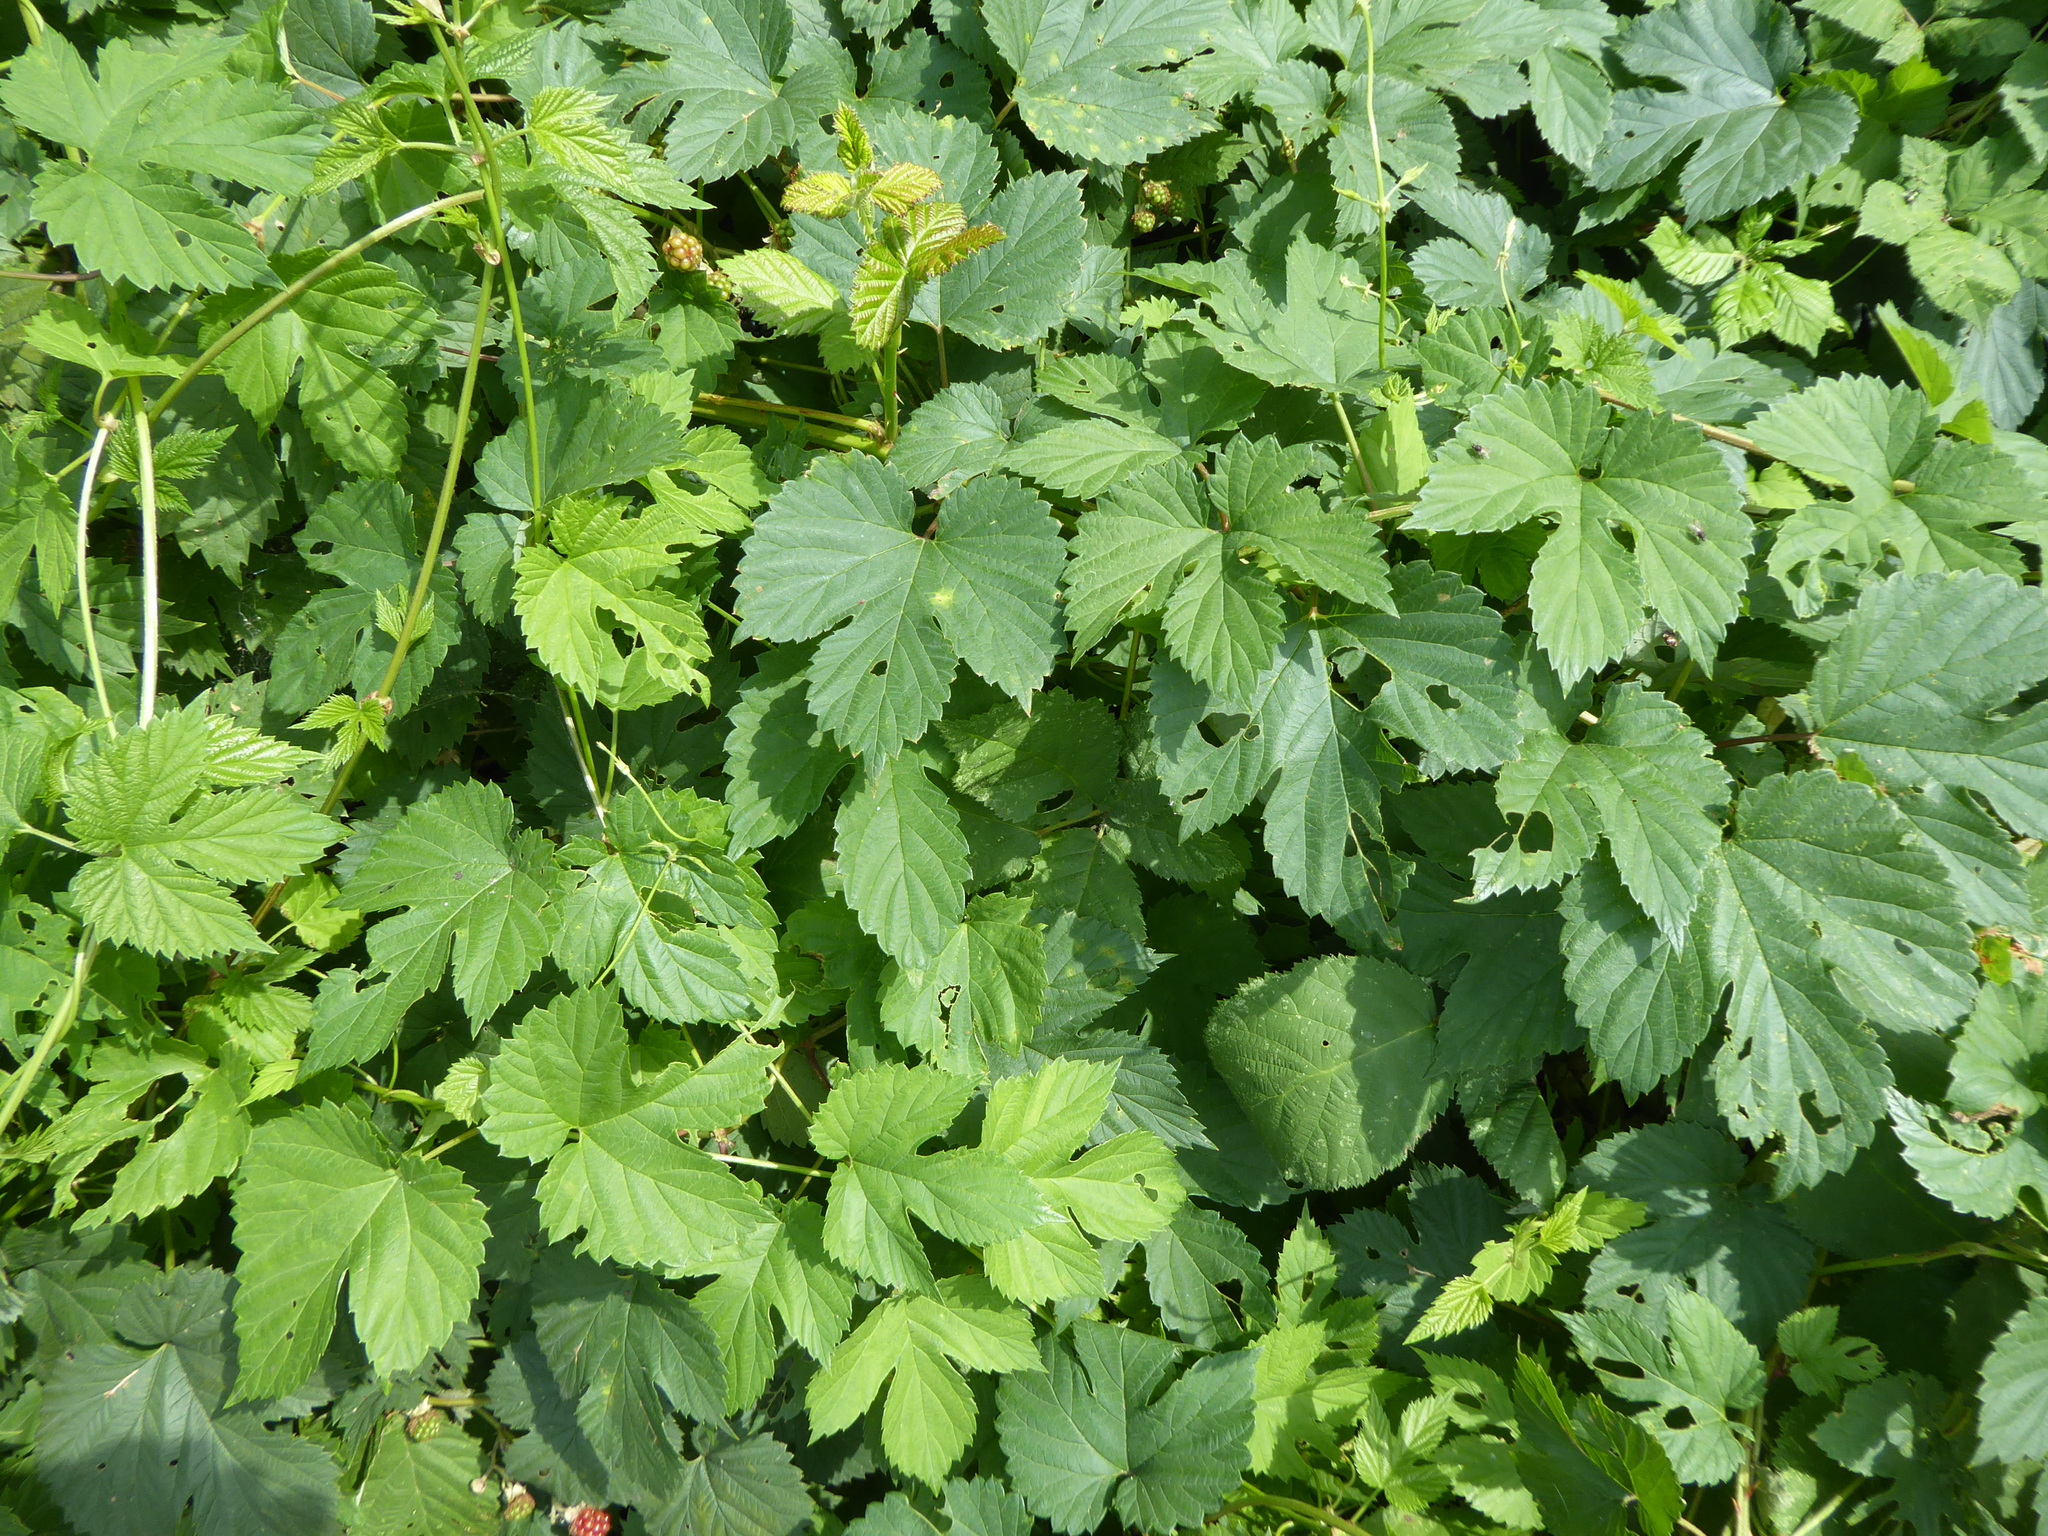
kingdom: Plantae
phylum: Tracheophyta
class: Magnoliopsida
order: Rosales
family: Cannabaceae
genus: Humulus
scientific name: Humulus lupulus
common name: Hop
